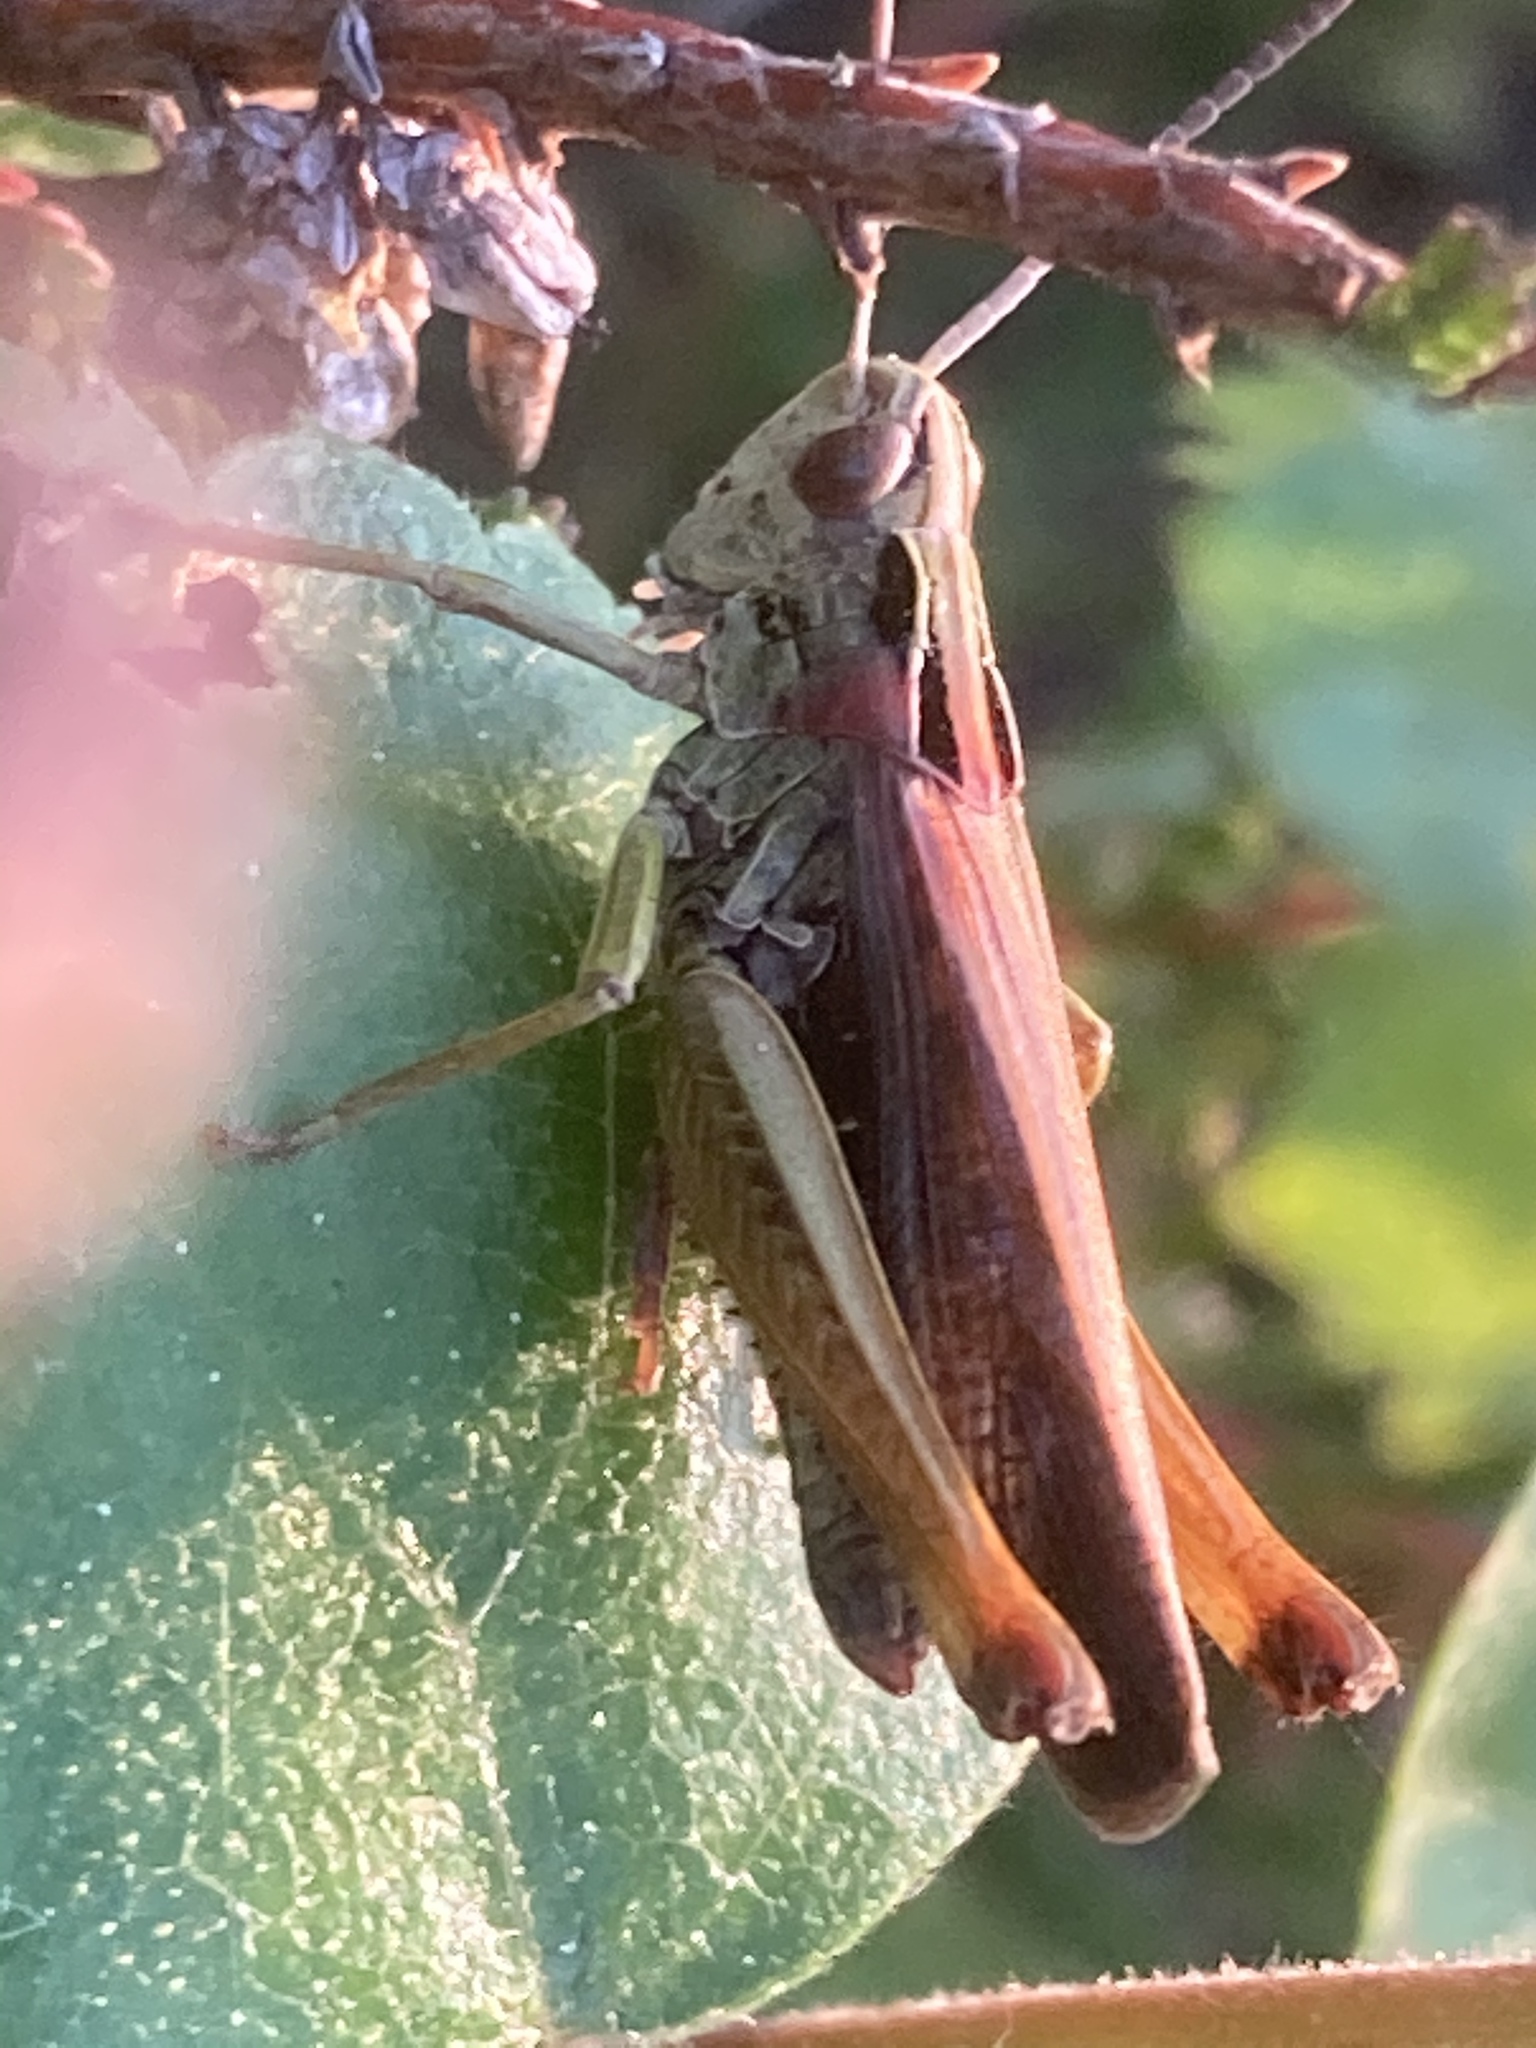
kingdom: Animalia
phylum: Arthropoda
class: Insecta
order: Orthoptera
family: Acrididae
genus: Omocestus
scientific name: Omocestus viridulus
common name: Common green grasshopper
